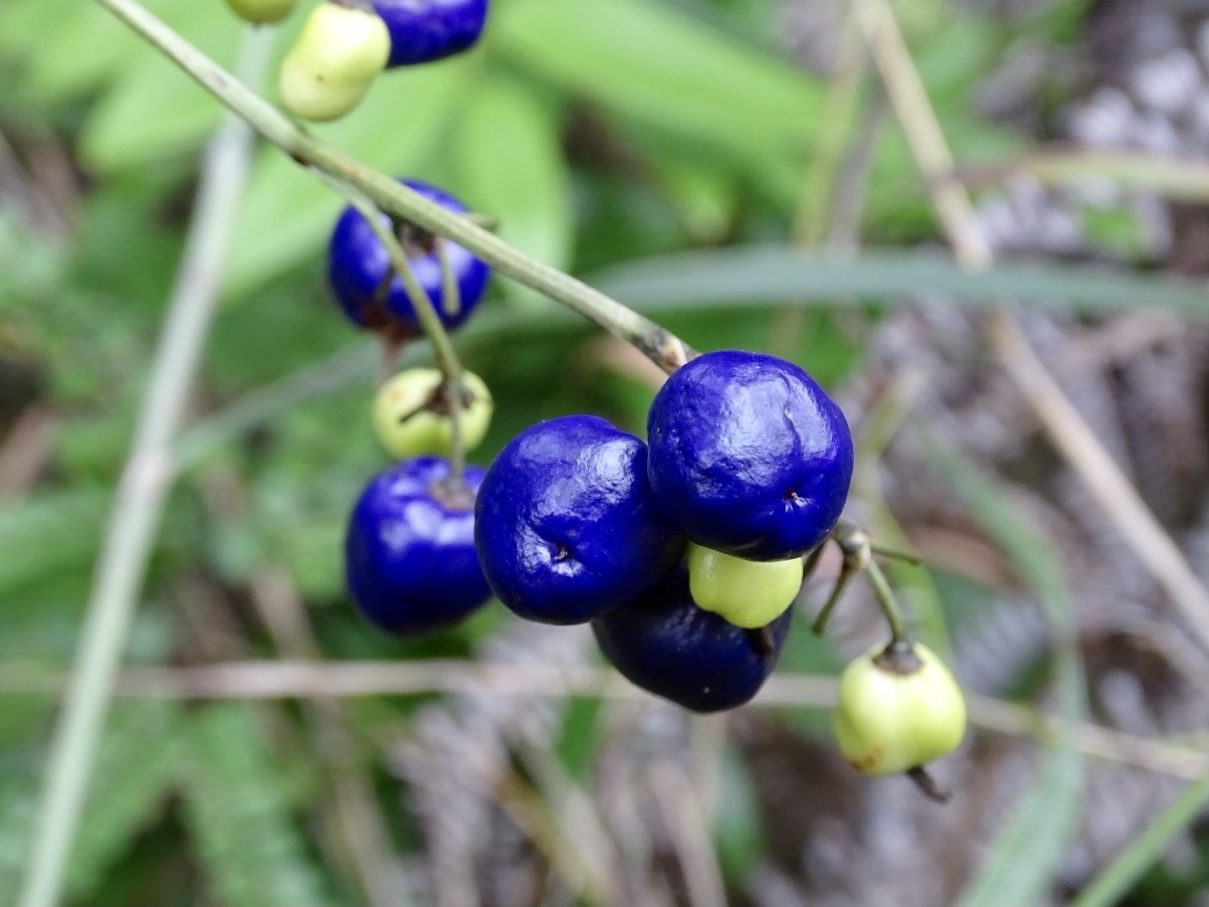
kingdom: Plantae
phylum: Tracheophyta
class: Liliopsida
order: Asparagales
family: Asphodelaceae
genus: Dianella
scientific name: Dianella ensifolia
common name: New zealand lilyplant
